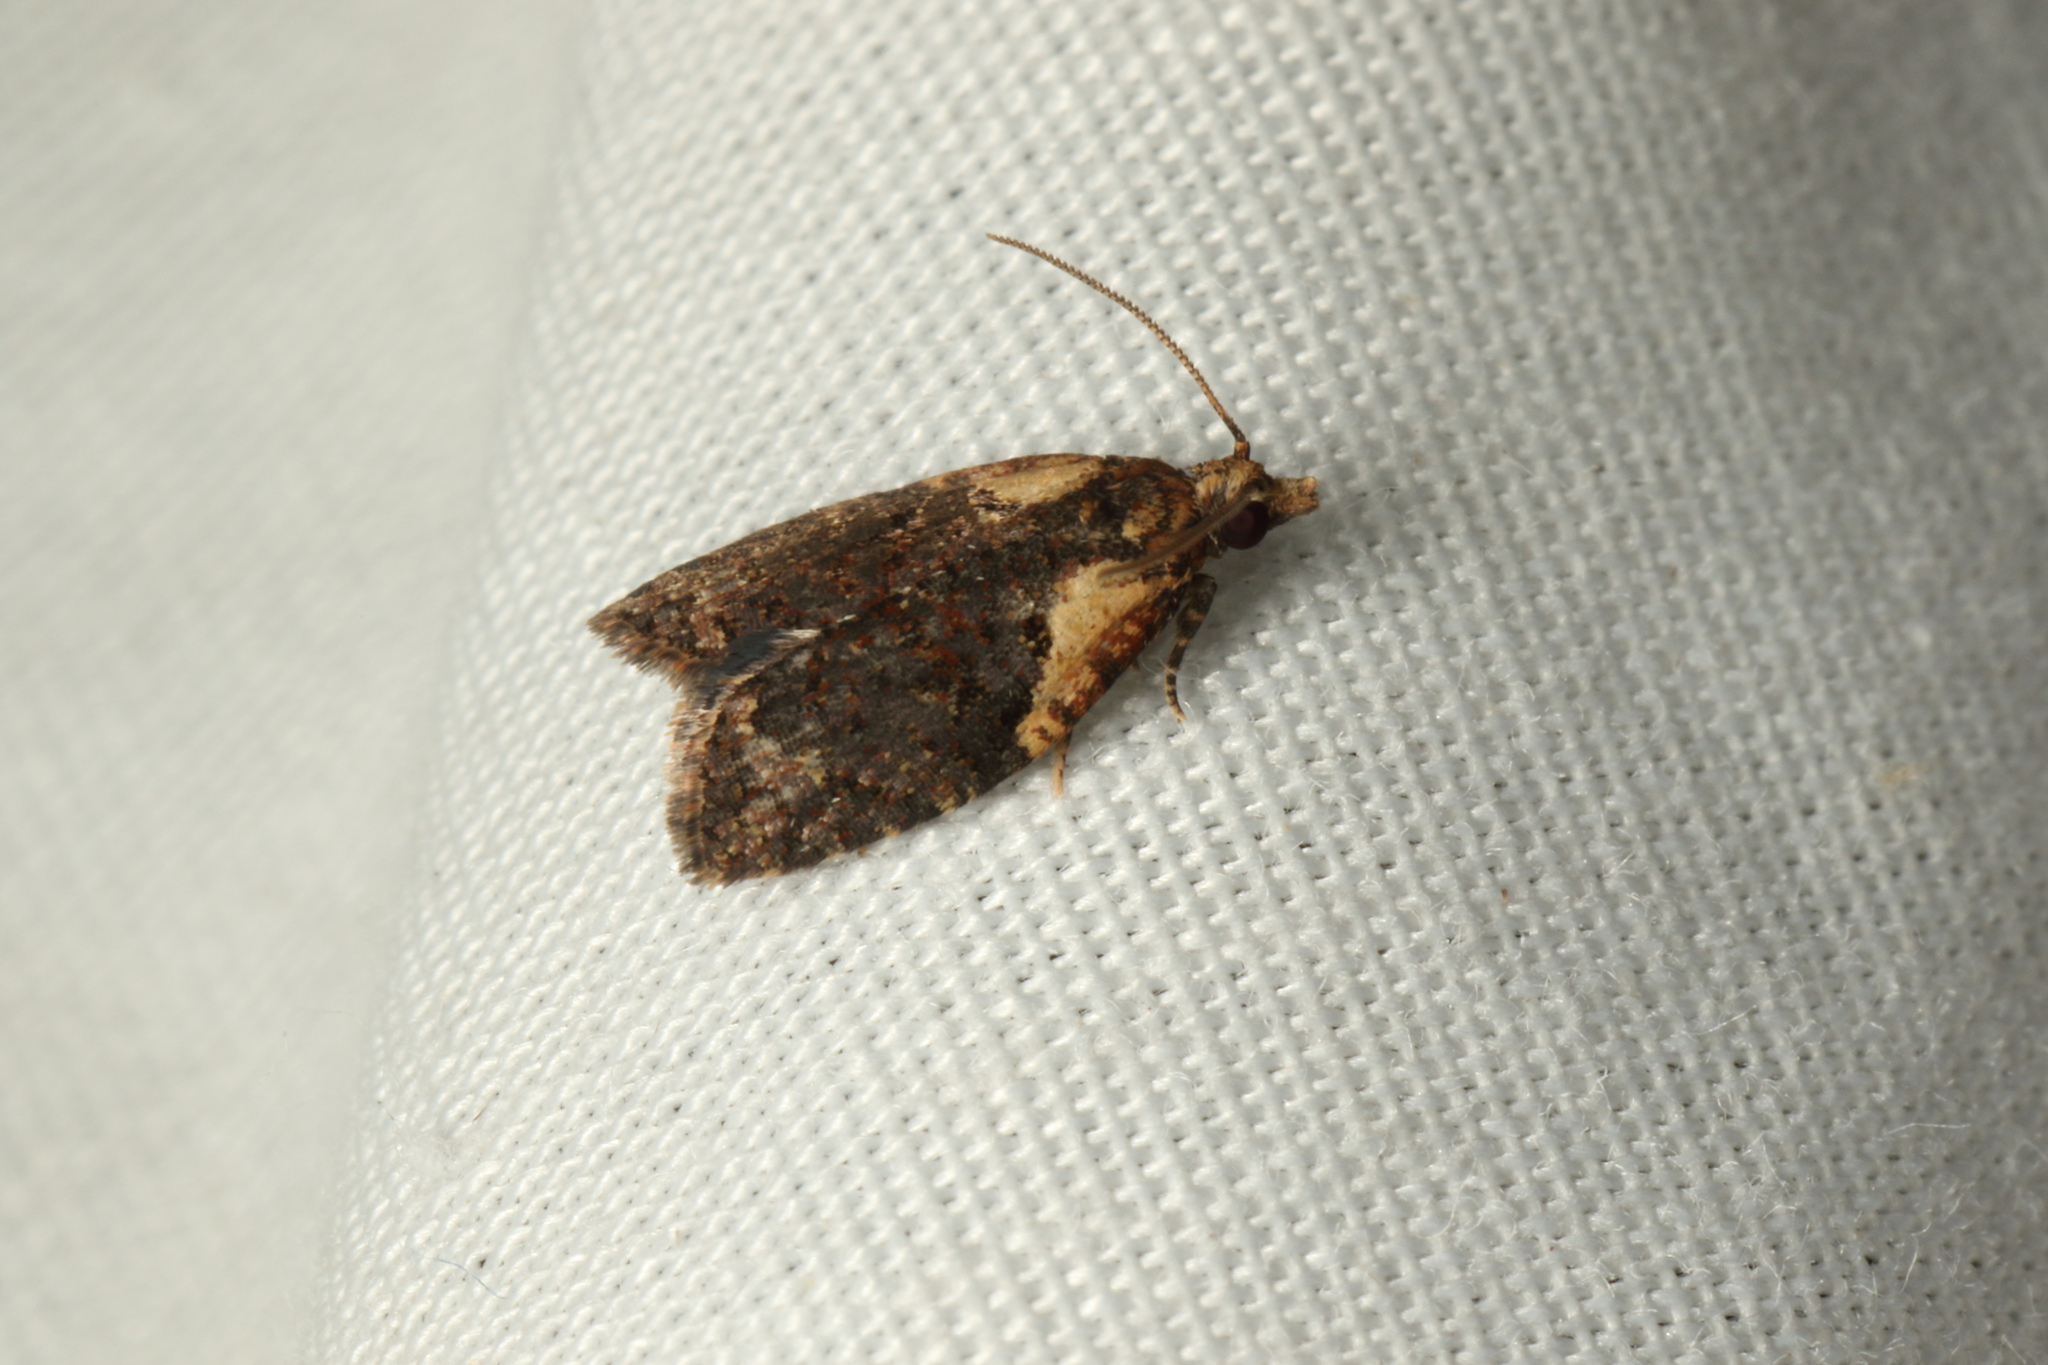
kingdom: Animalia
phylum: Arthropoda
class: Insecta
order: Lepidoptera
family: Tortricidae
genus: Capua
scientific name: Capua intractana
